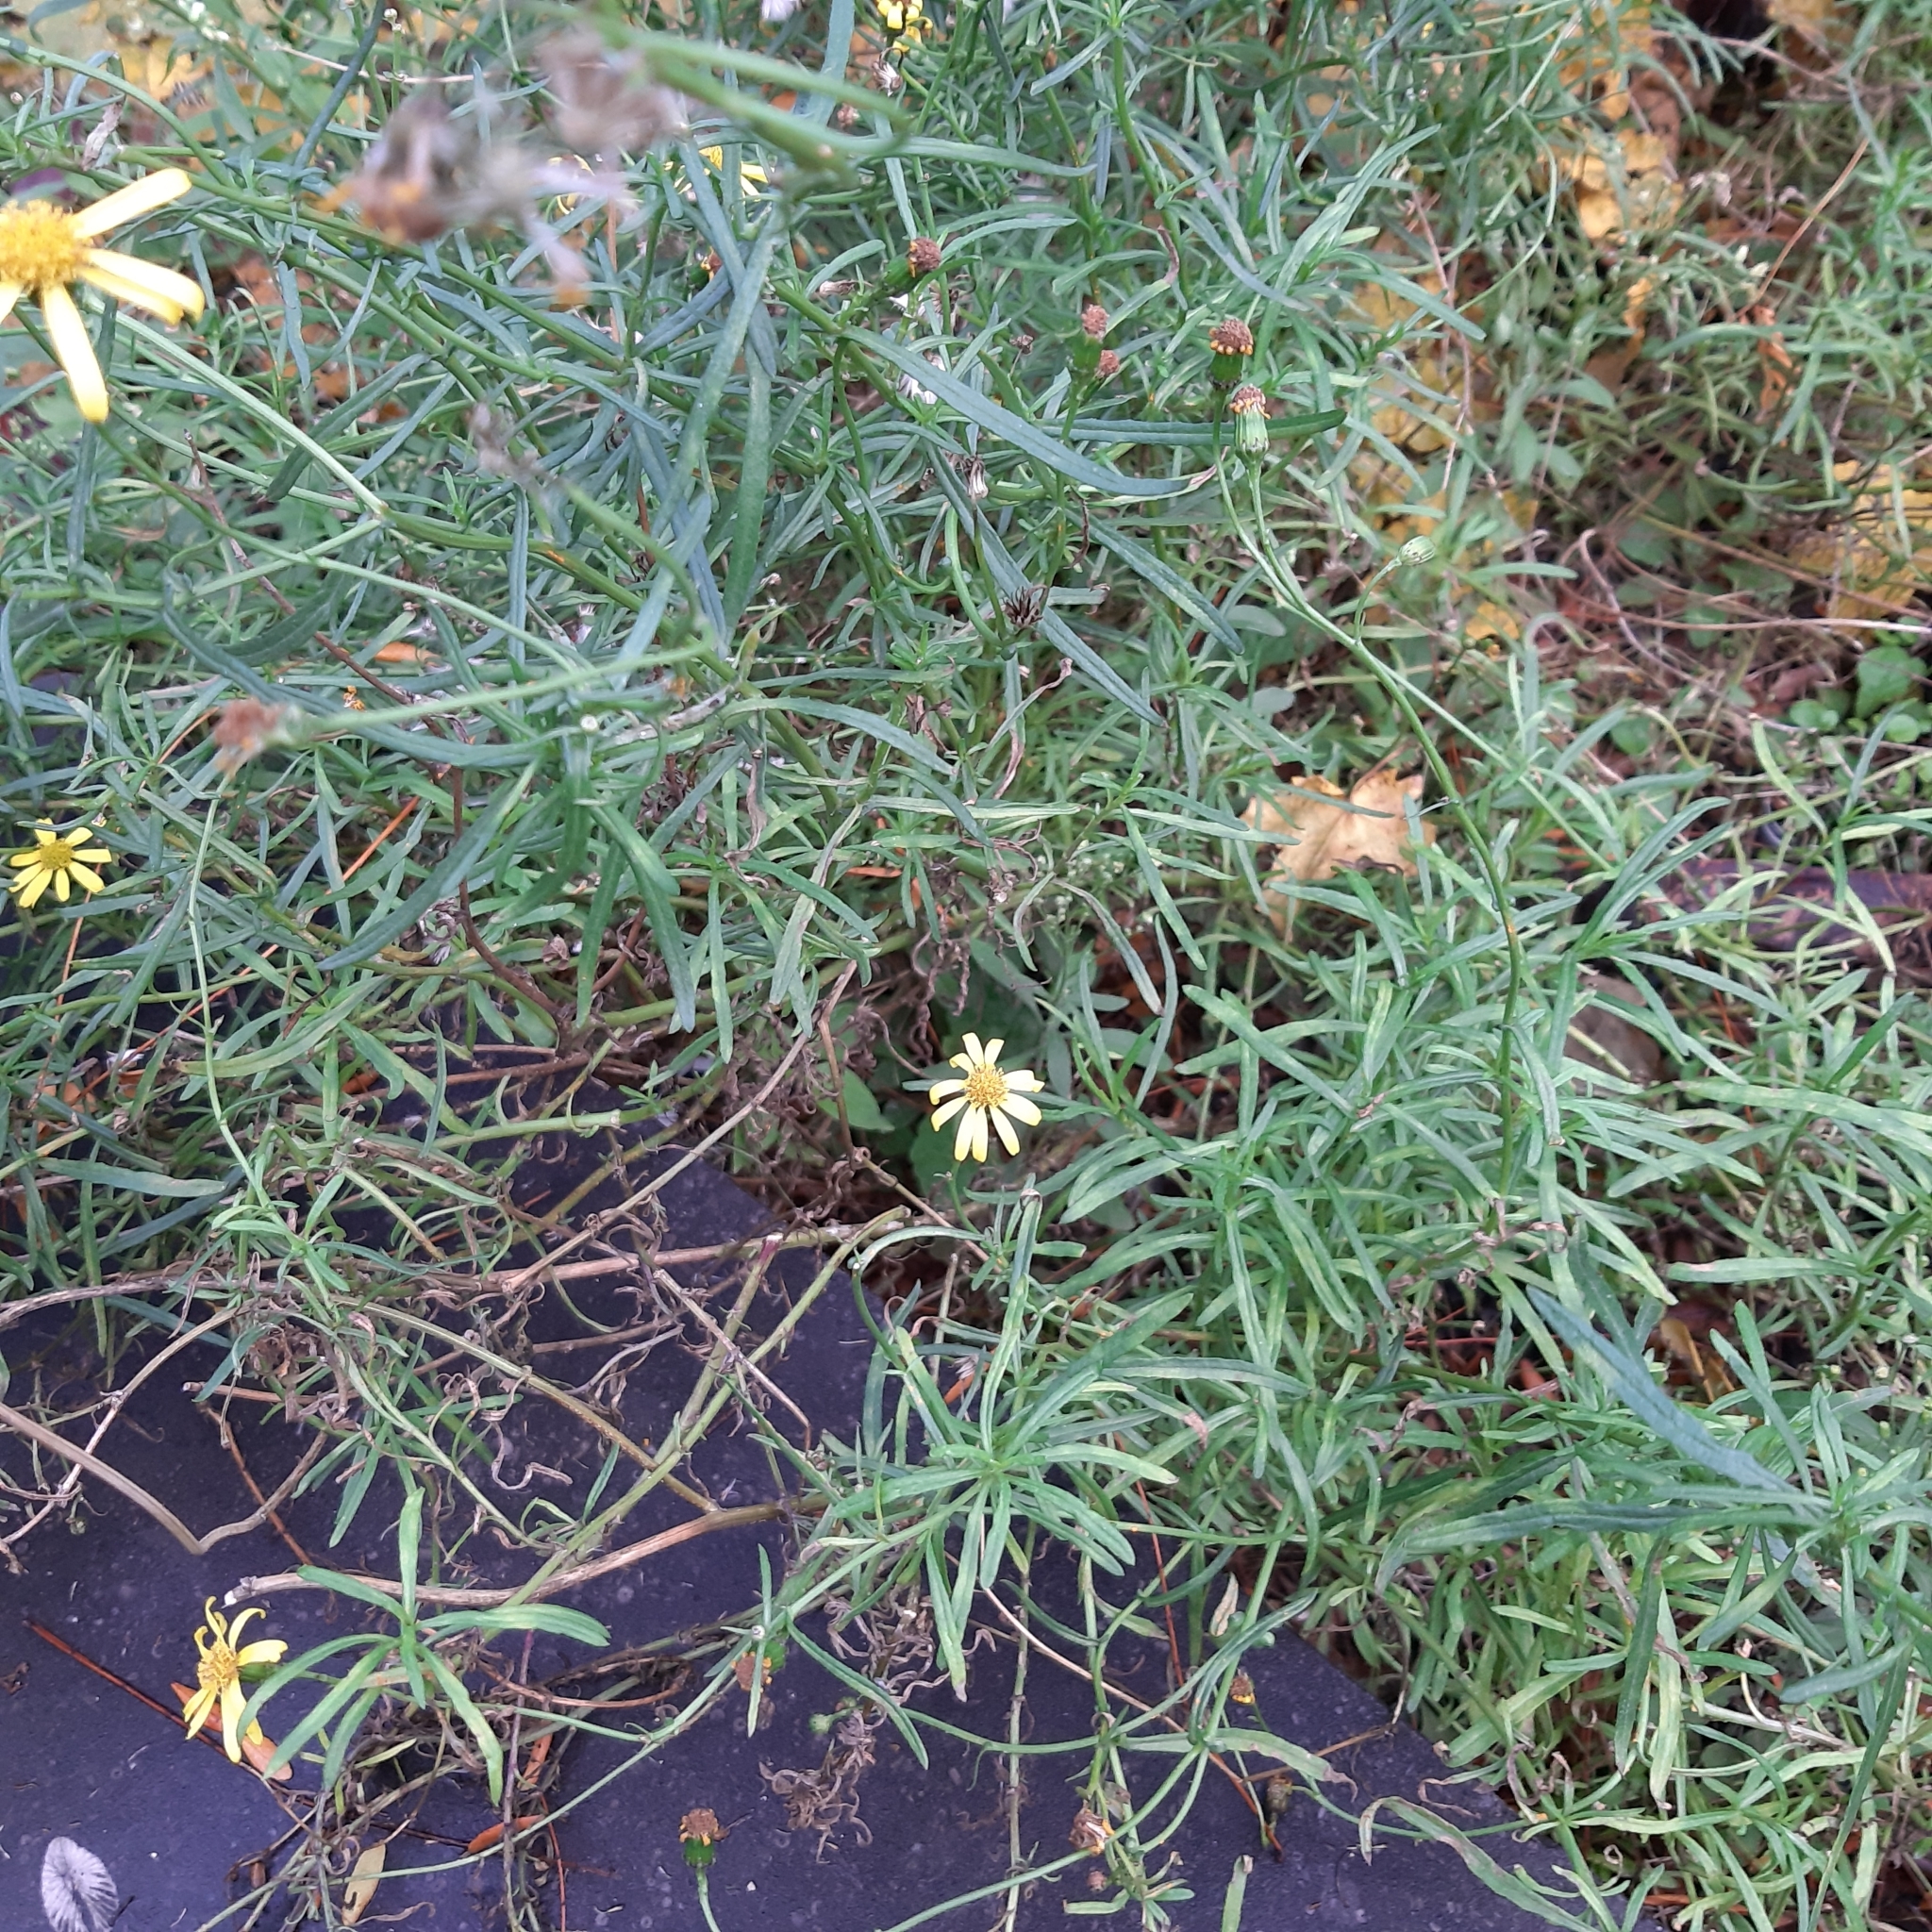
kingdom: Plantae
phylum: Tracheophyta
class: Magnoliopsida
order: Asterales
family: Asteraceae
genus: Senecio
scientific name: Senecio inaequidens
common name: Narrow-leaved ragwort
